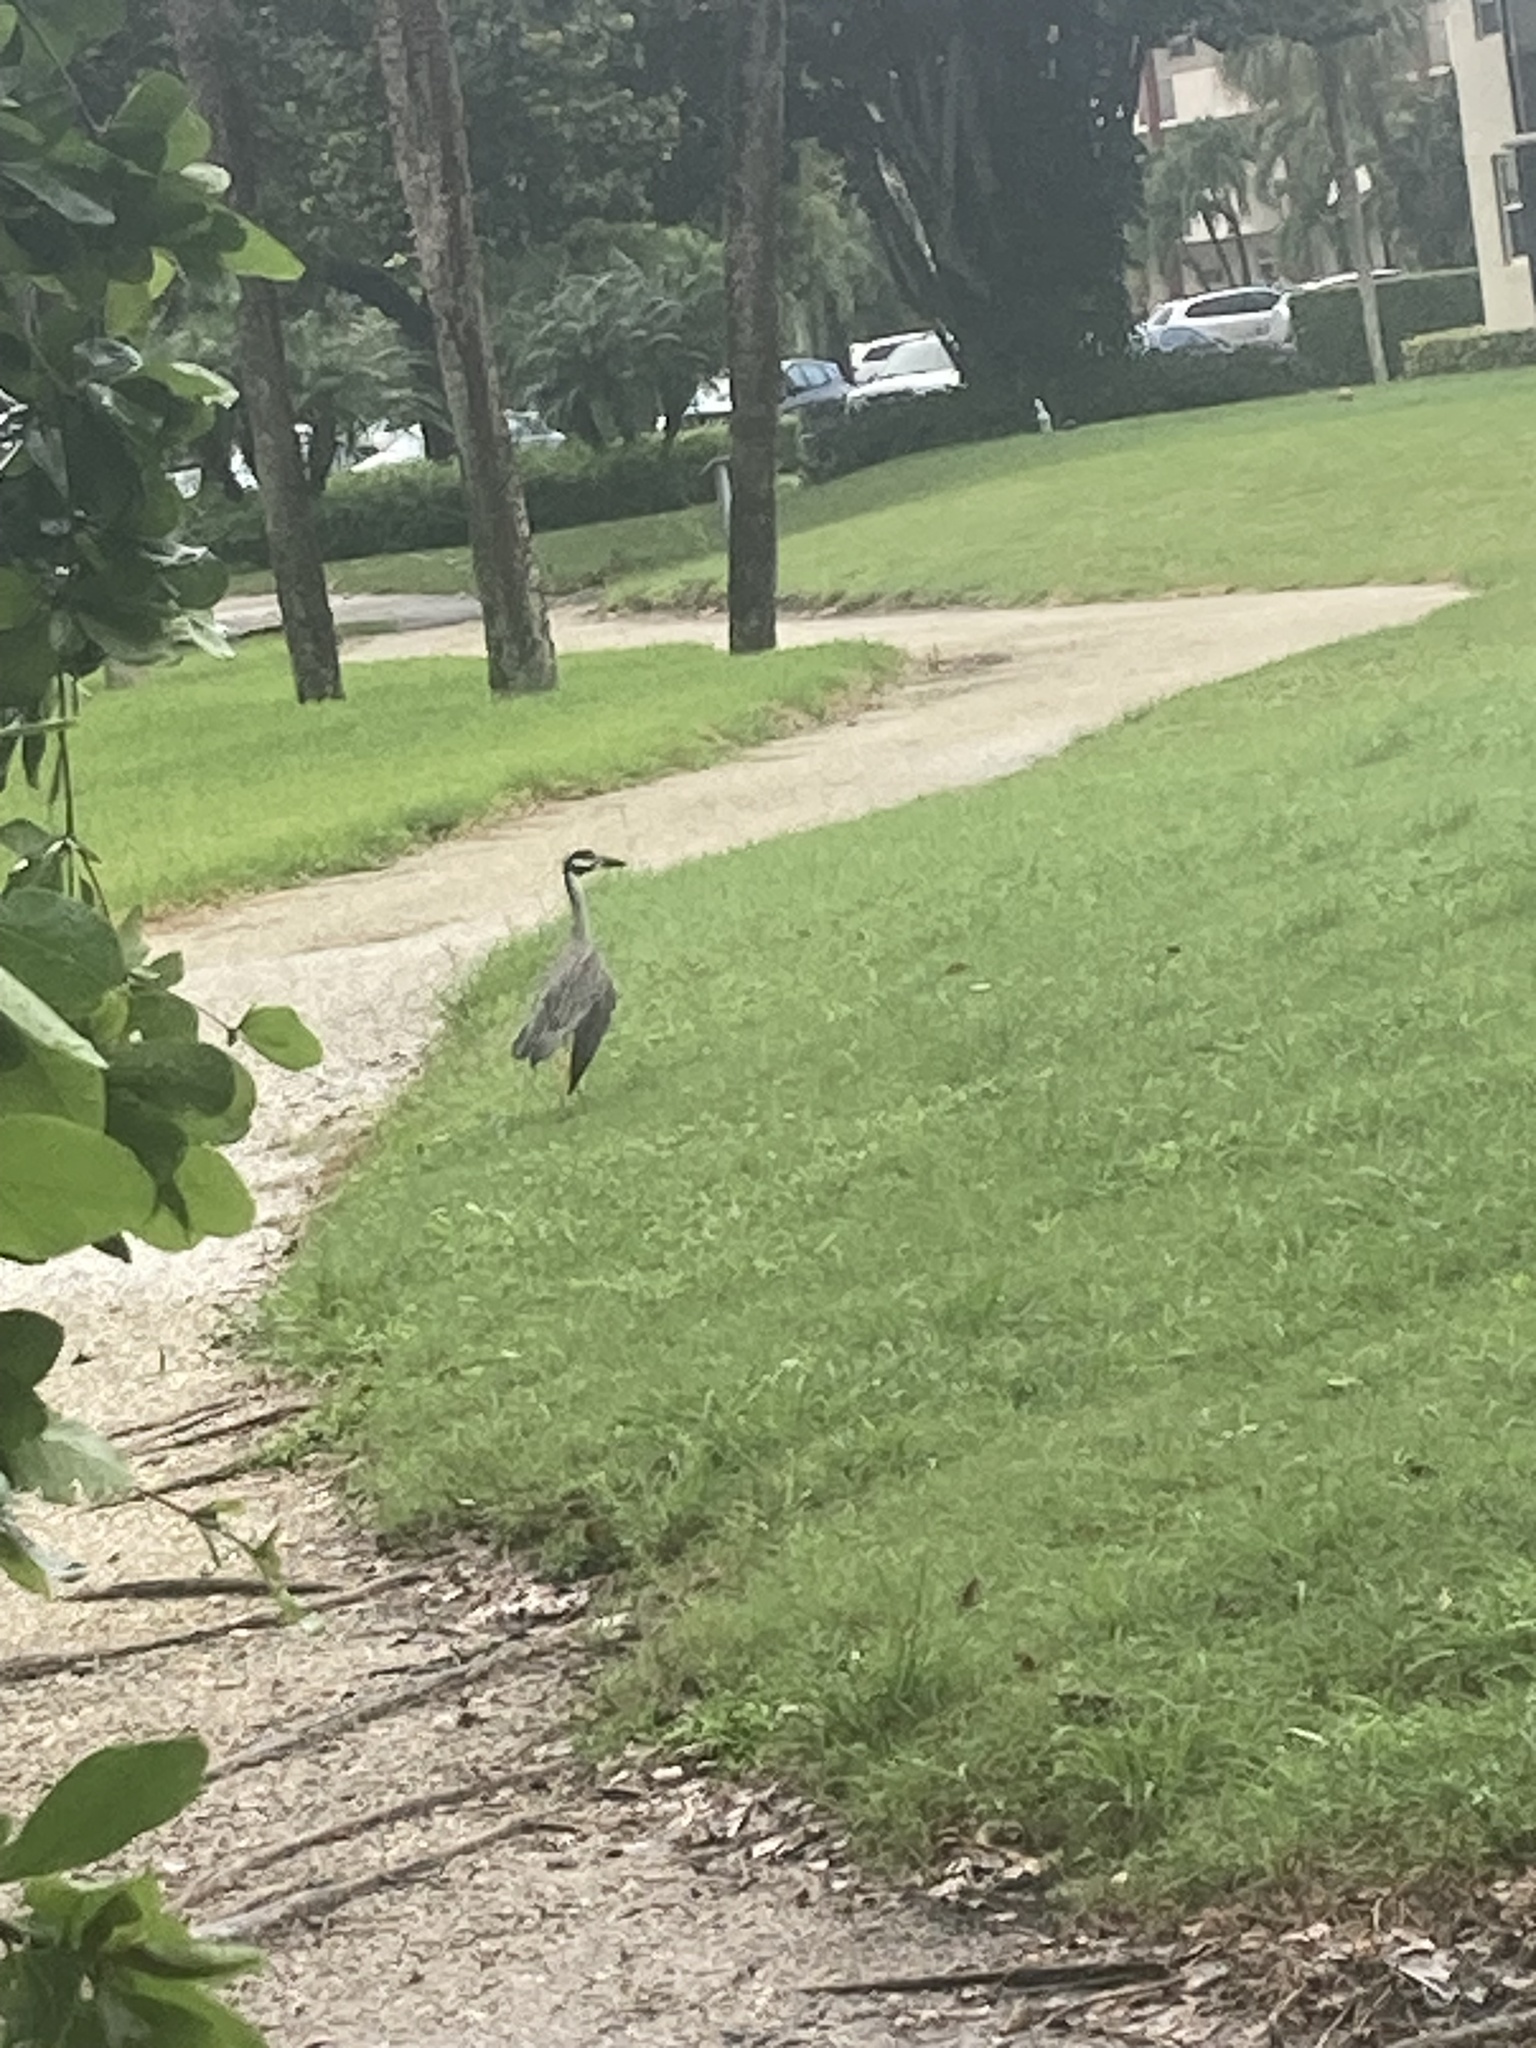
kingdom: Animalia
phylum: Chordata
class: Aves
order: Pelecaniformes
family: Ardeidae
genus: Nyctanassa
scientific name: Nyctanassa violacea
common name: Yellow-crowned night heron
